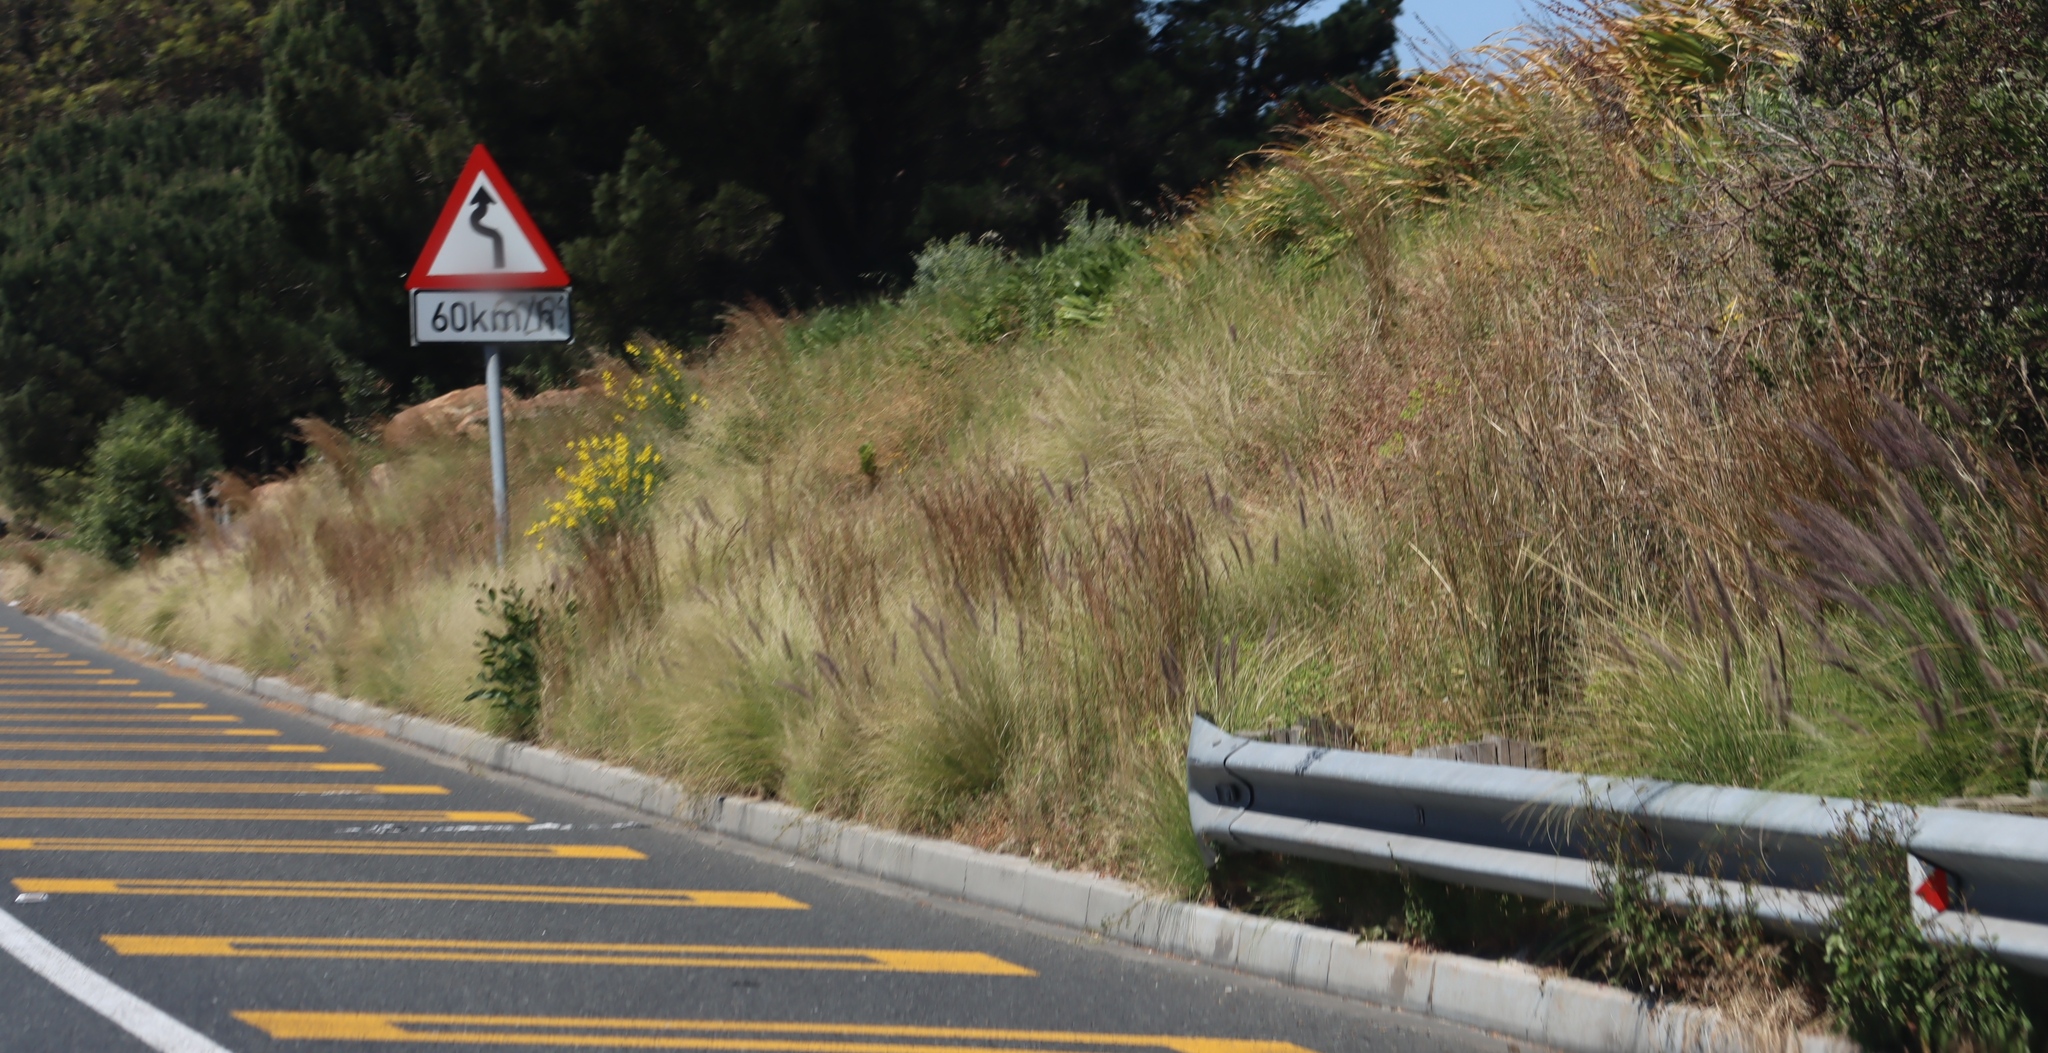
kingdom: Plantae
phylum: Tracheophyta
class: Liliopsida
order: Poales
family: Poaceae
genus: Cenchrus
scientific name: Cenchrus setaceus
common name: Crimson fountaingrass
